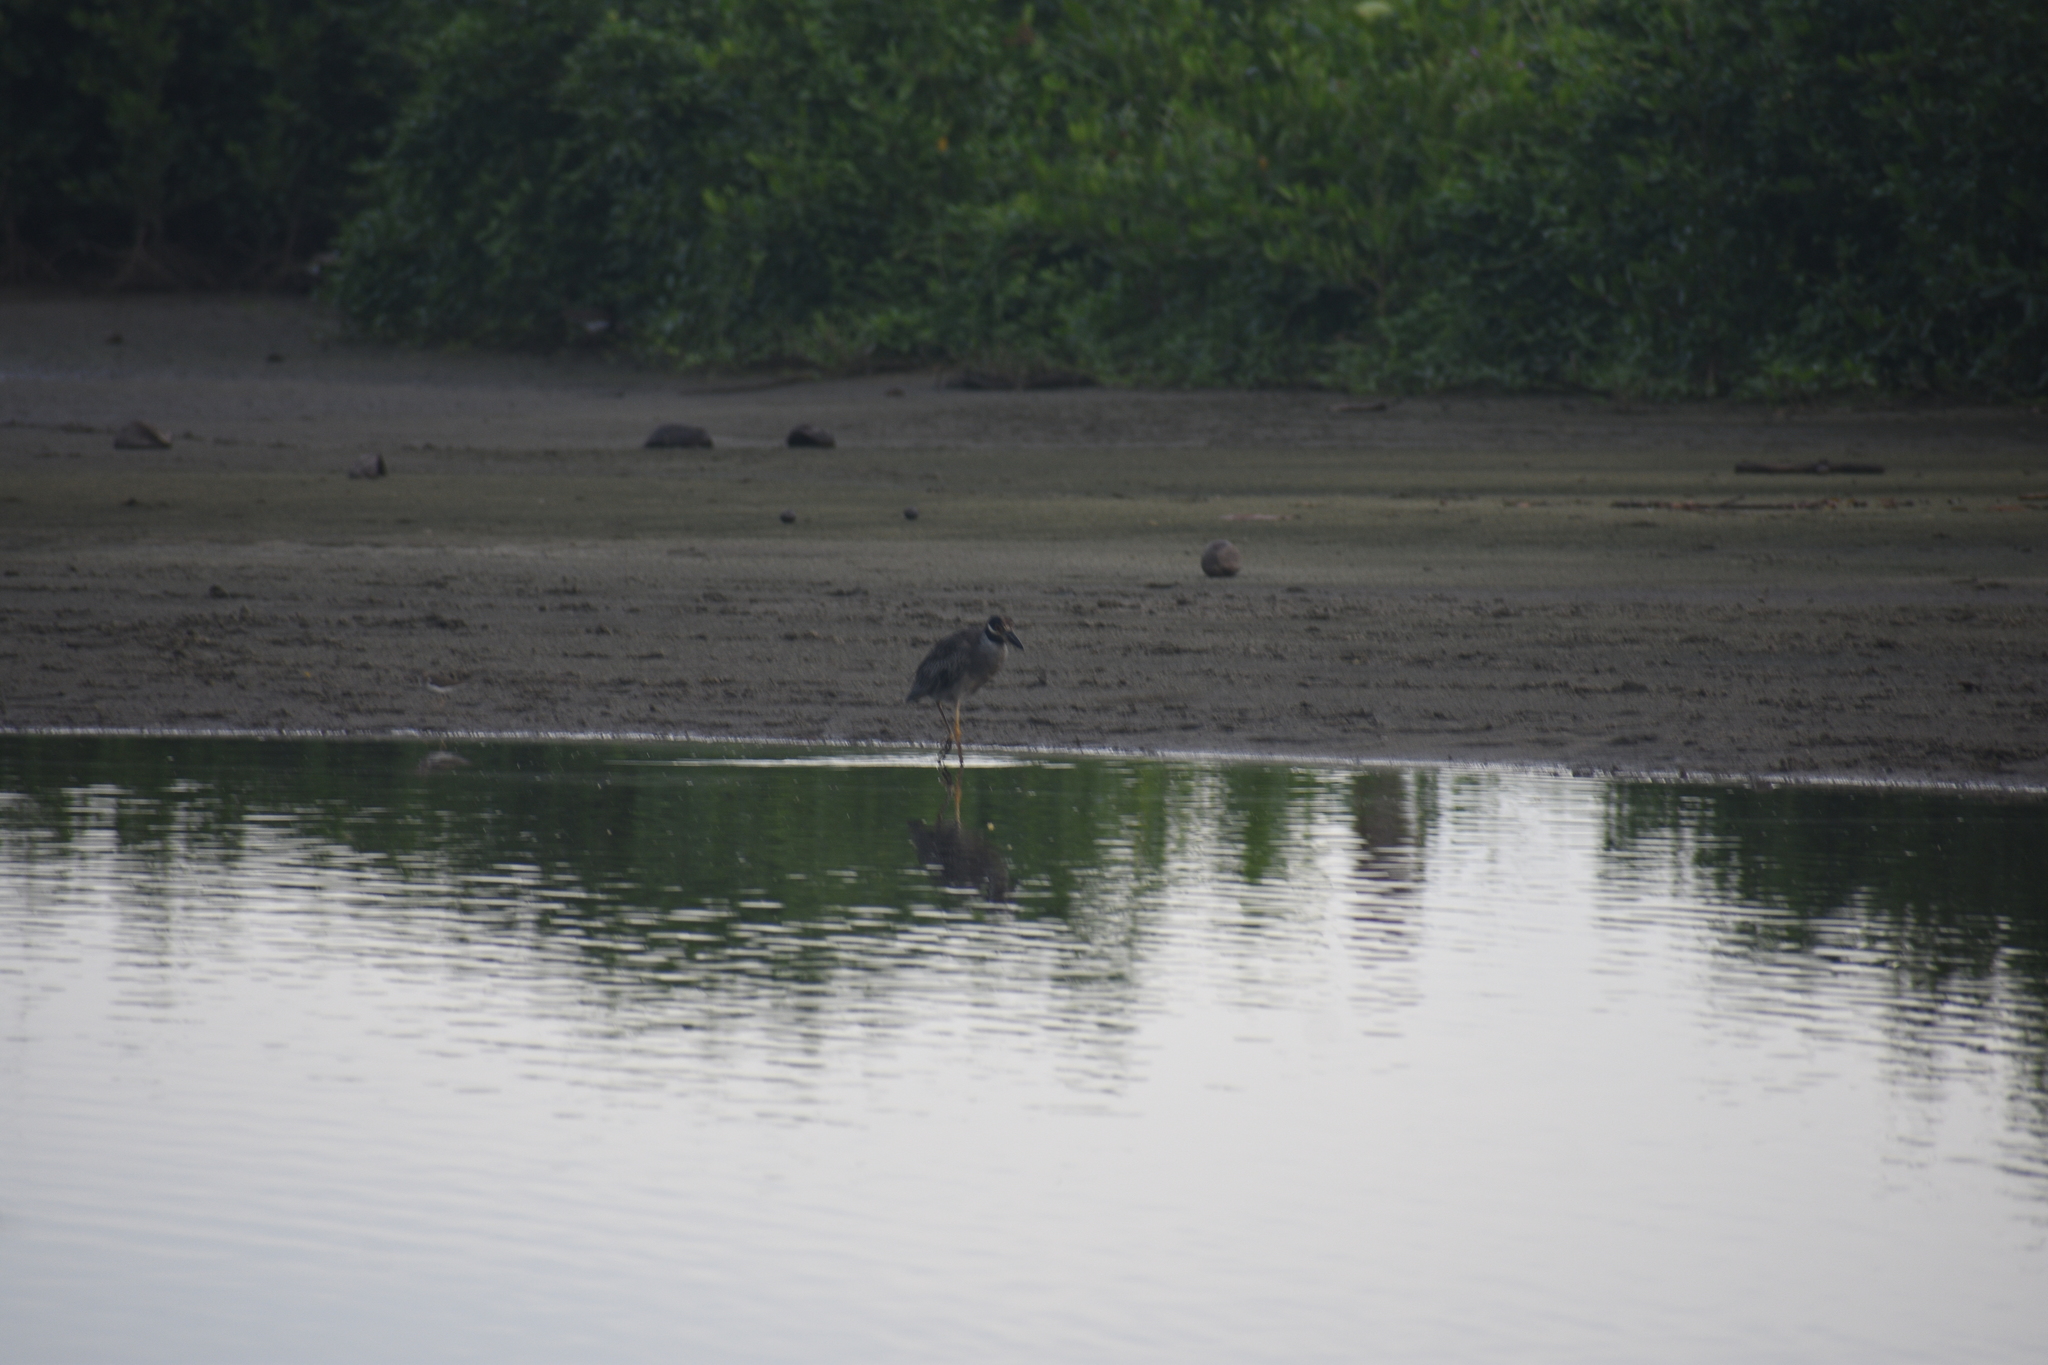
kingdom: Animalia
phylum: Chordata
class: Aves
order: Pelecaniformes
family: Ardeidae
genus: Nyctanassa
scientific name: Nyctanassa violacea
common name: Yellow-crowned night heron
